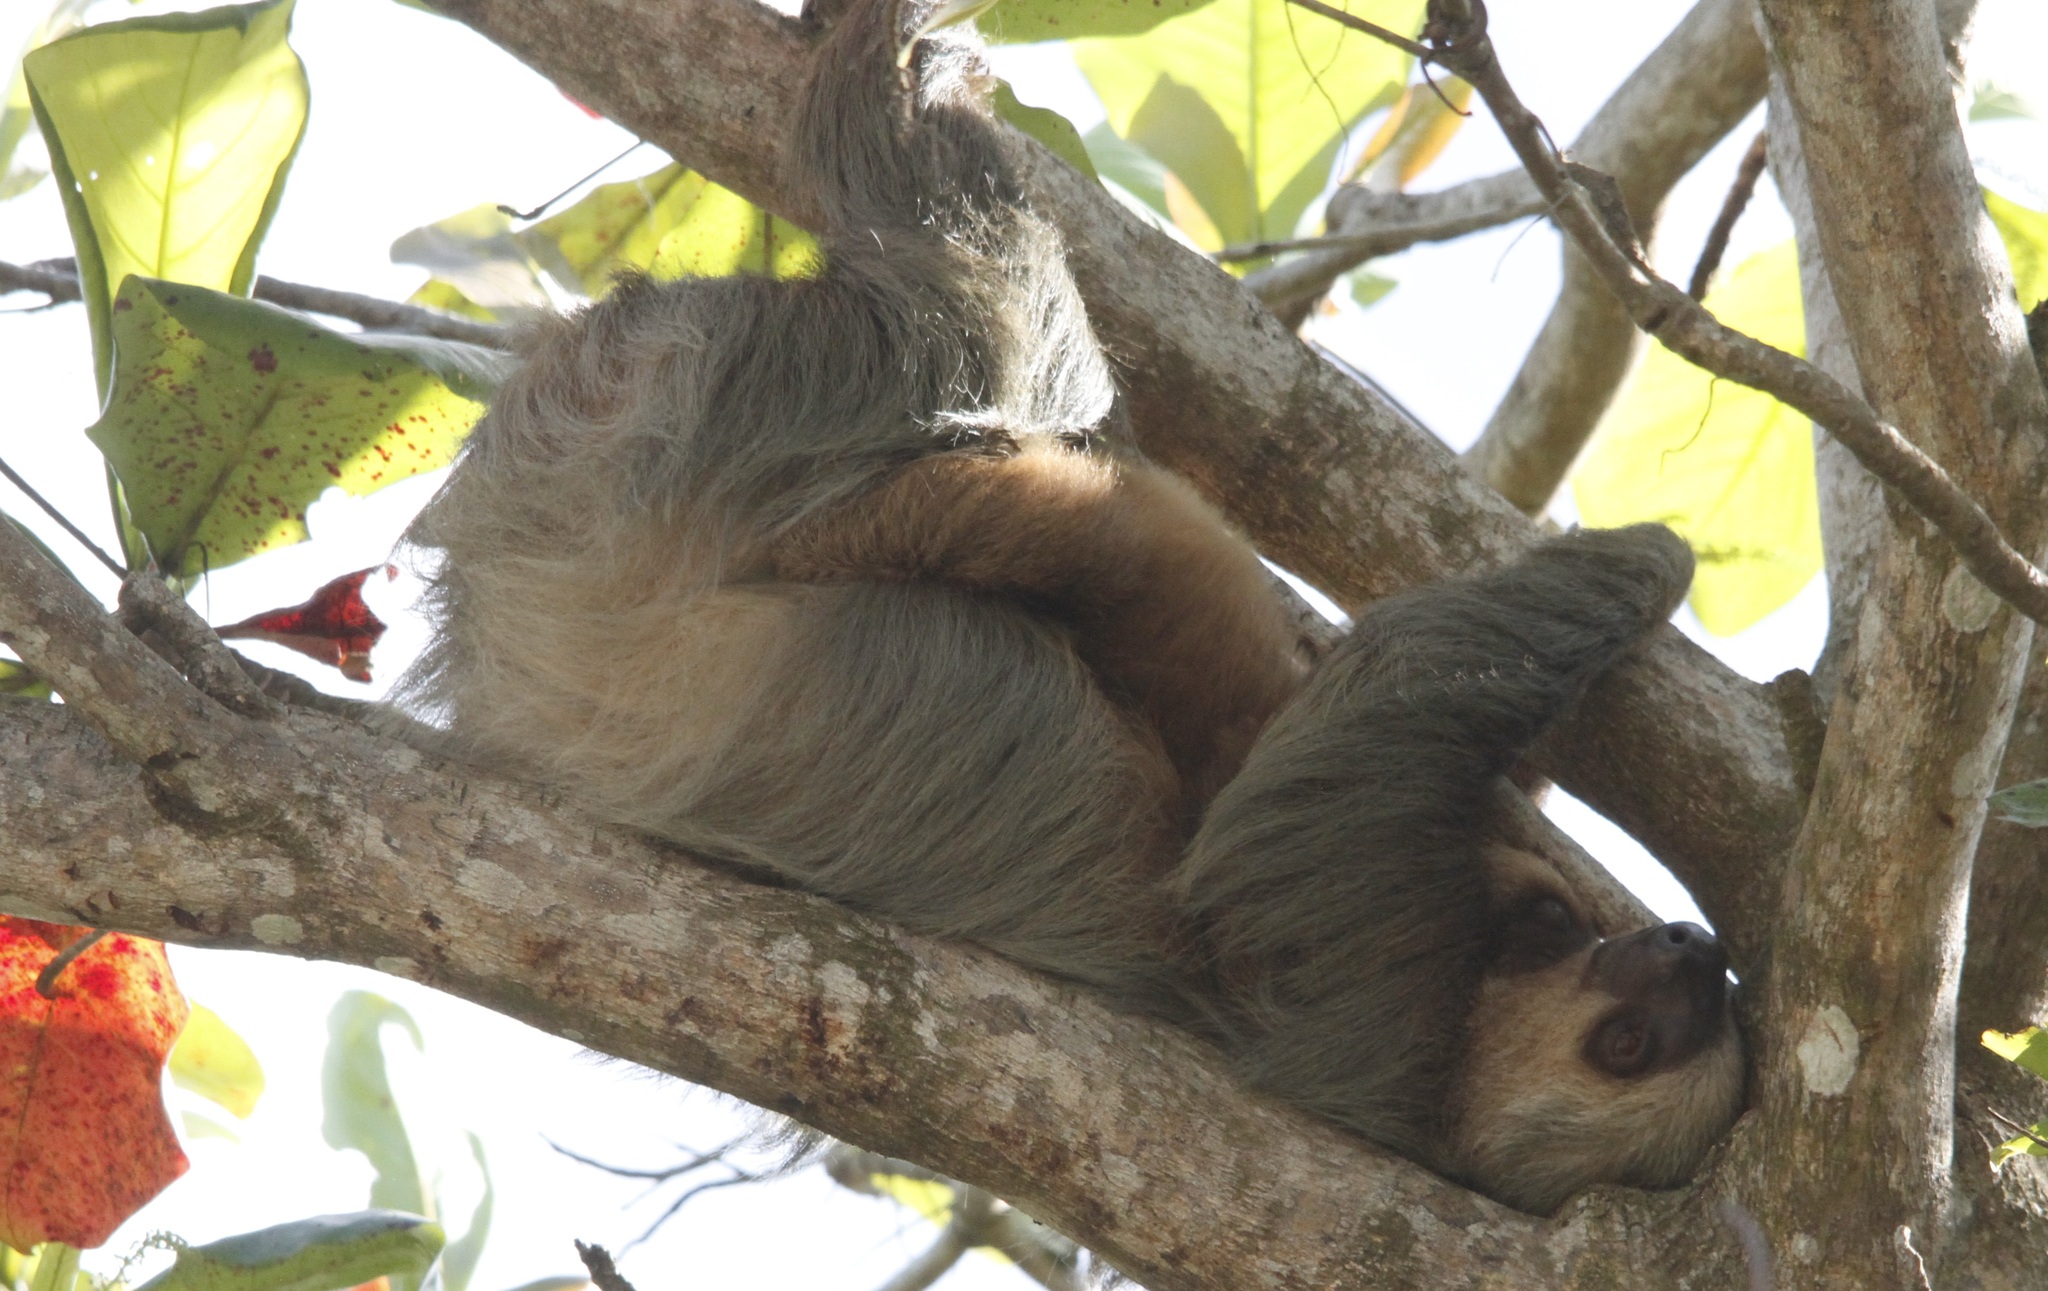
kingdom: Animalia
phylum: Chordata
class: Mammalia
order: Pilosa
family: Megalonychidae
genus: Choloepus
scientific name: Choloepus hoffmanni
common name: Hoffmann's two-toed sloth
